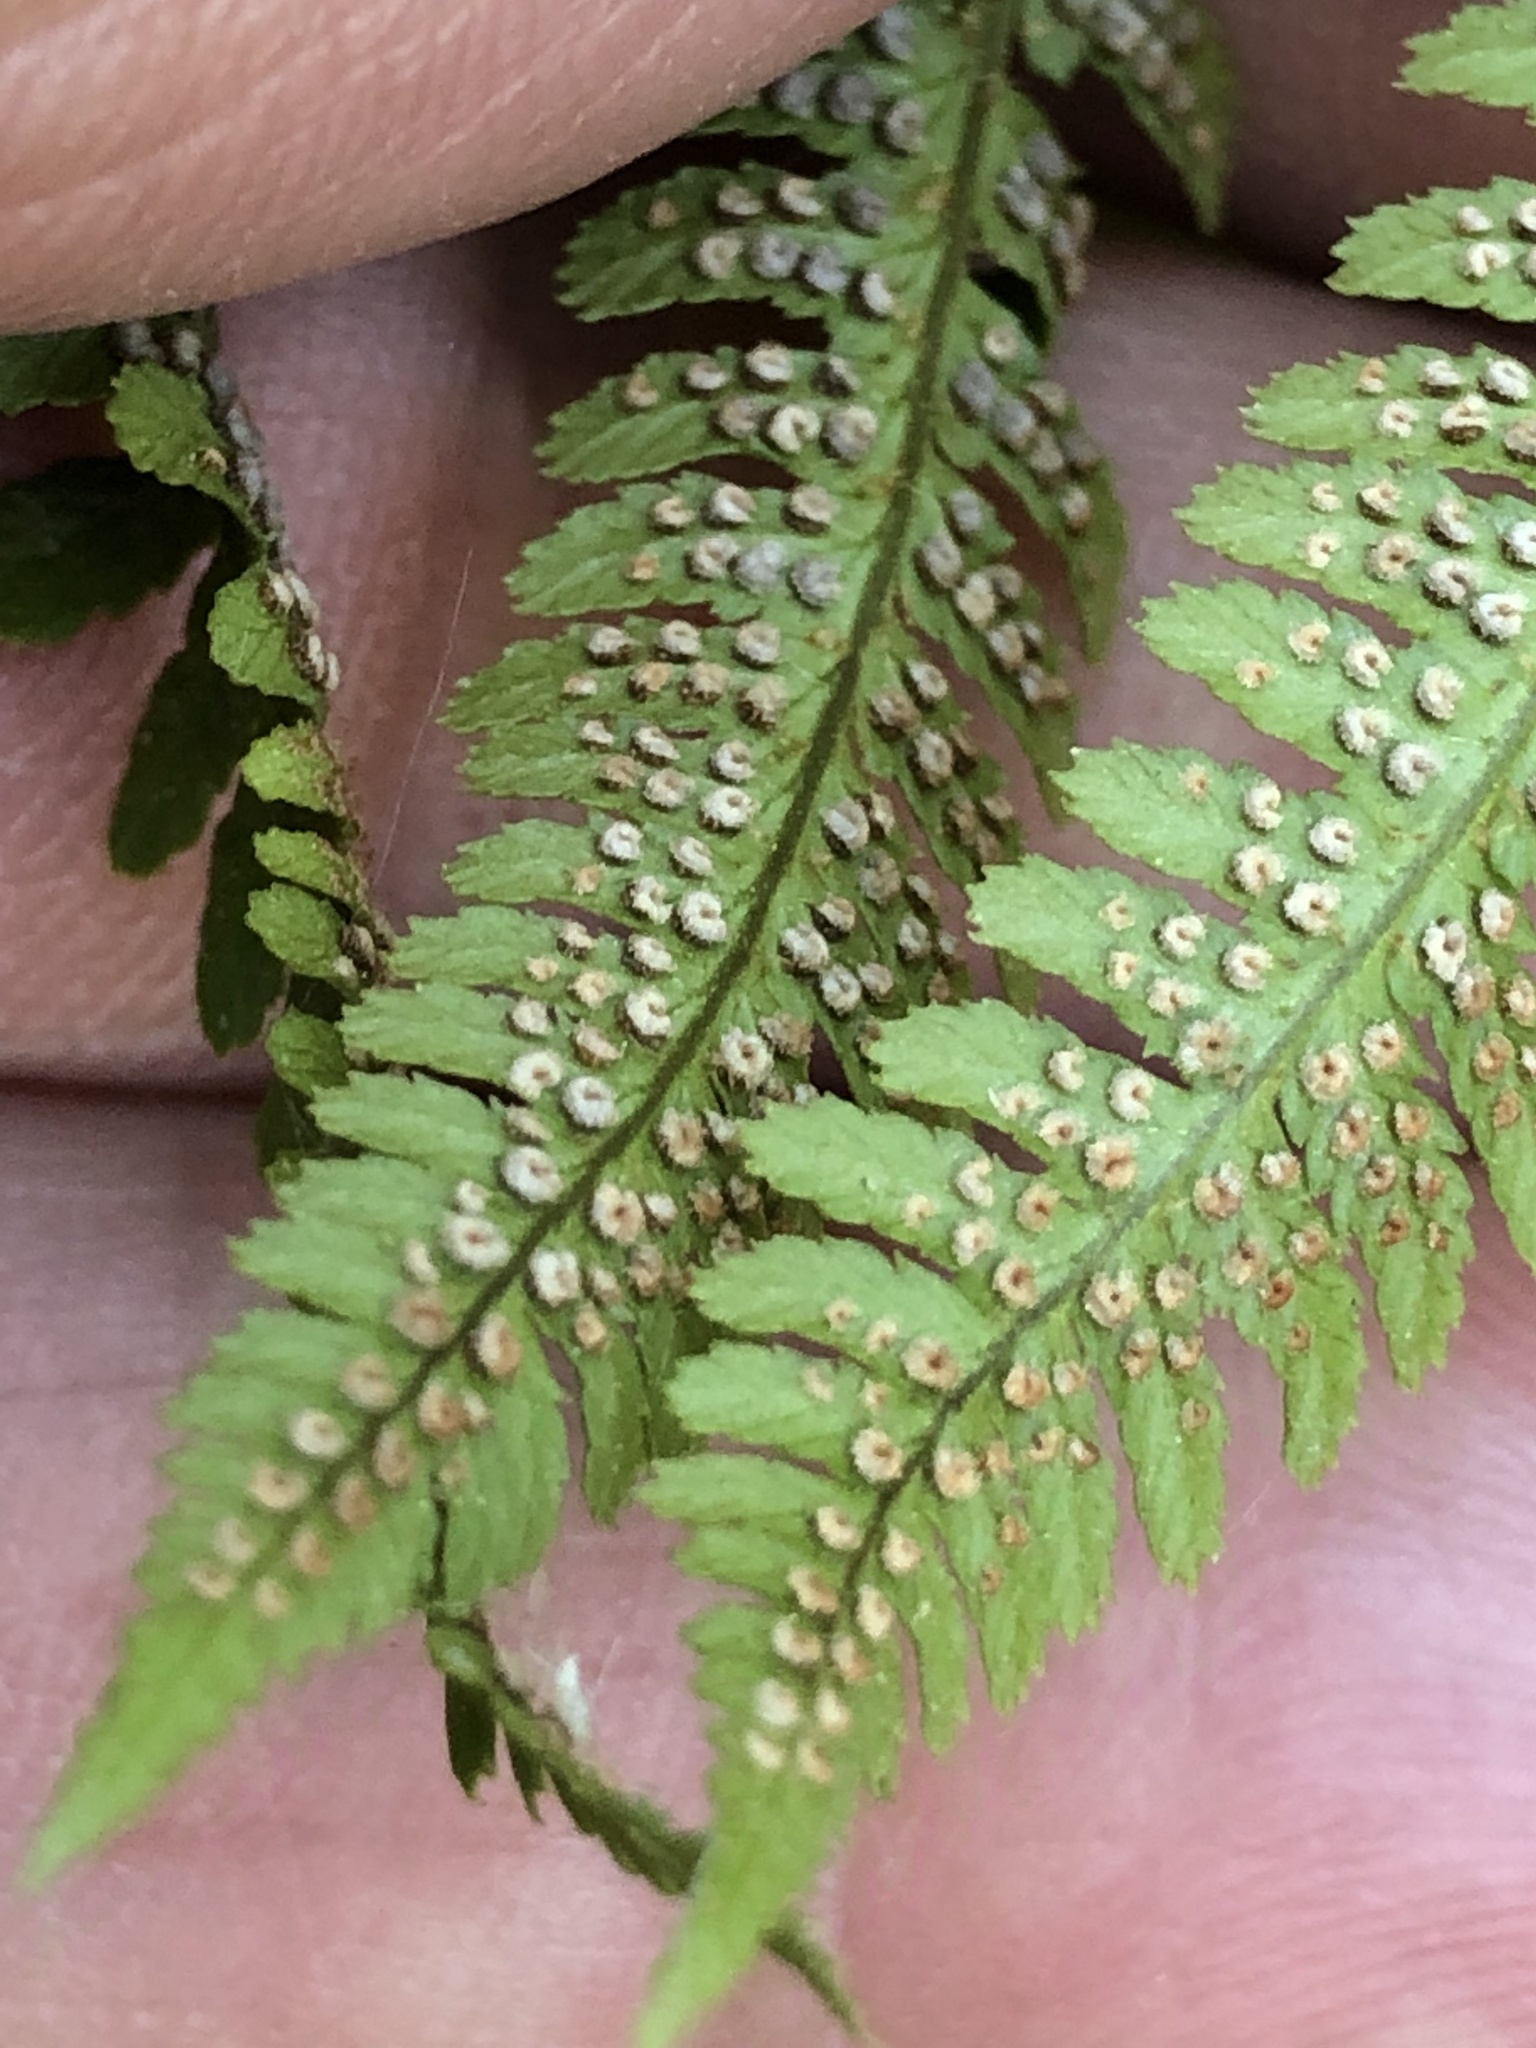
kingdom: Plantae
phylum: Tracheophyta
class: Polypodiopsida
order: Polypodiales
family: Dryopteridaceae
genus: Dryopteris
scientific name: Dryopteris arguta
